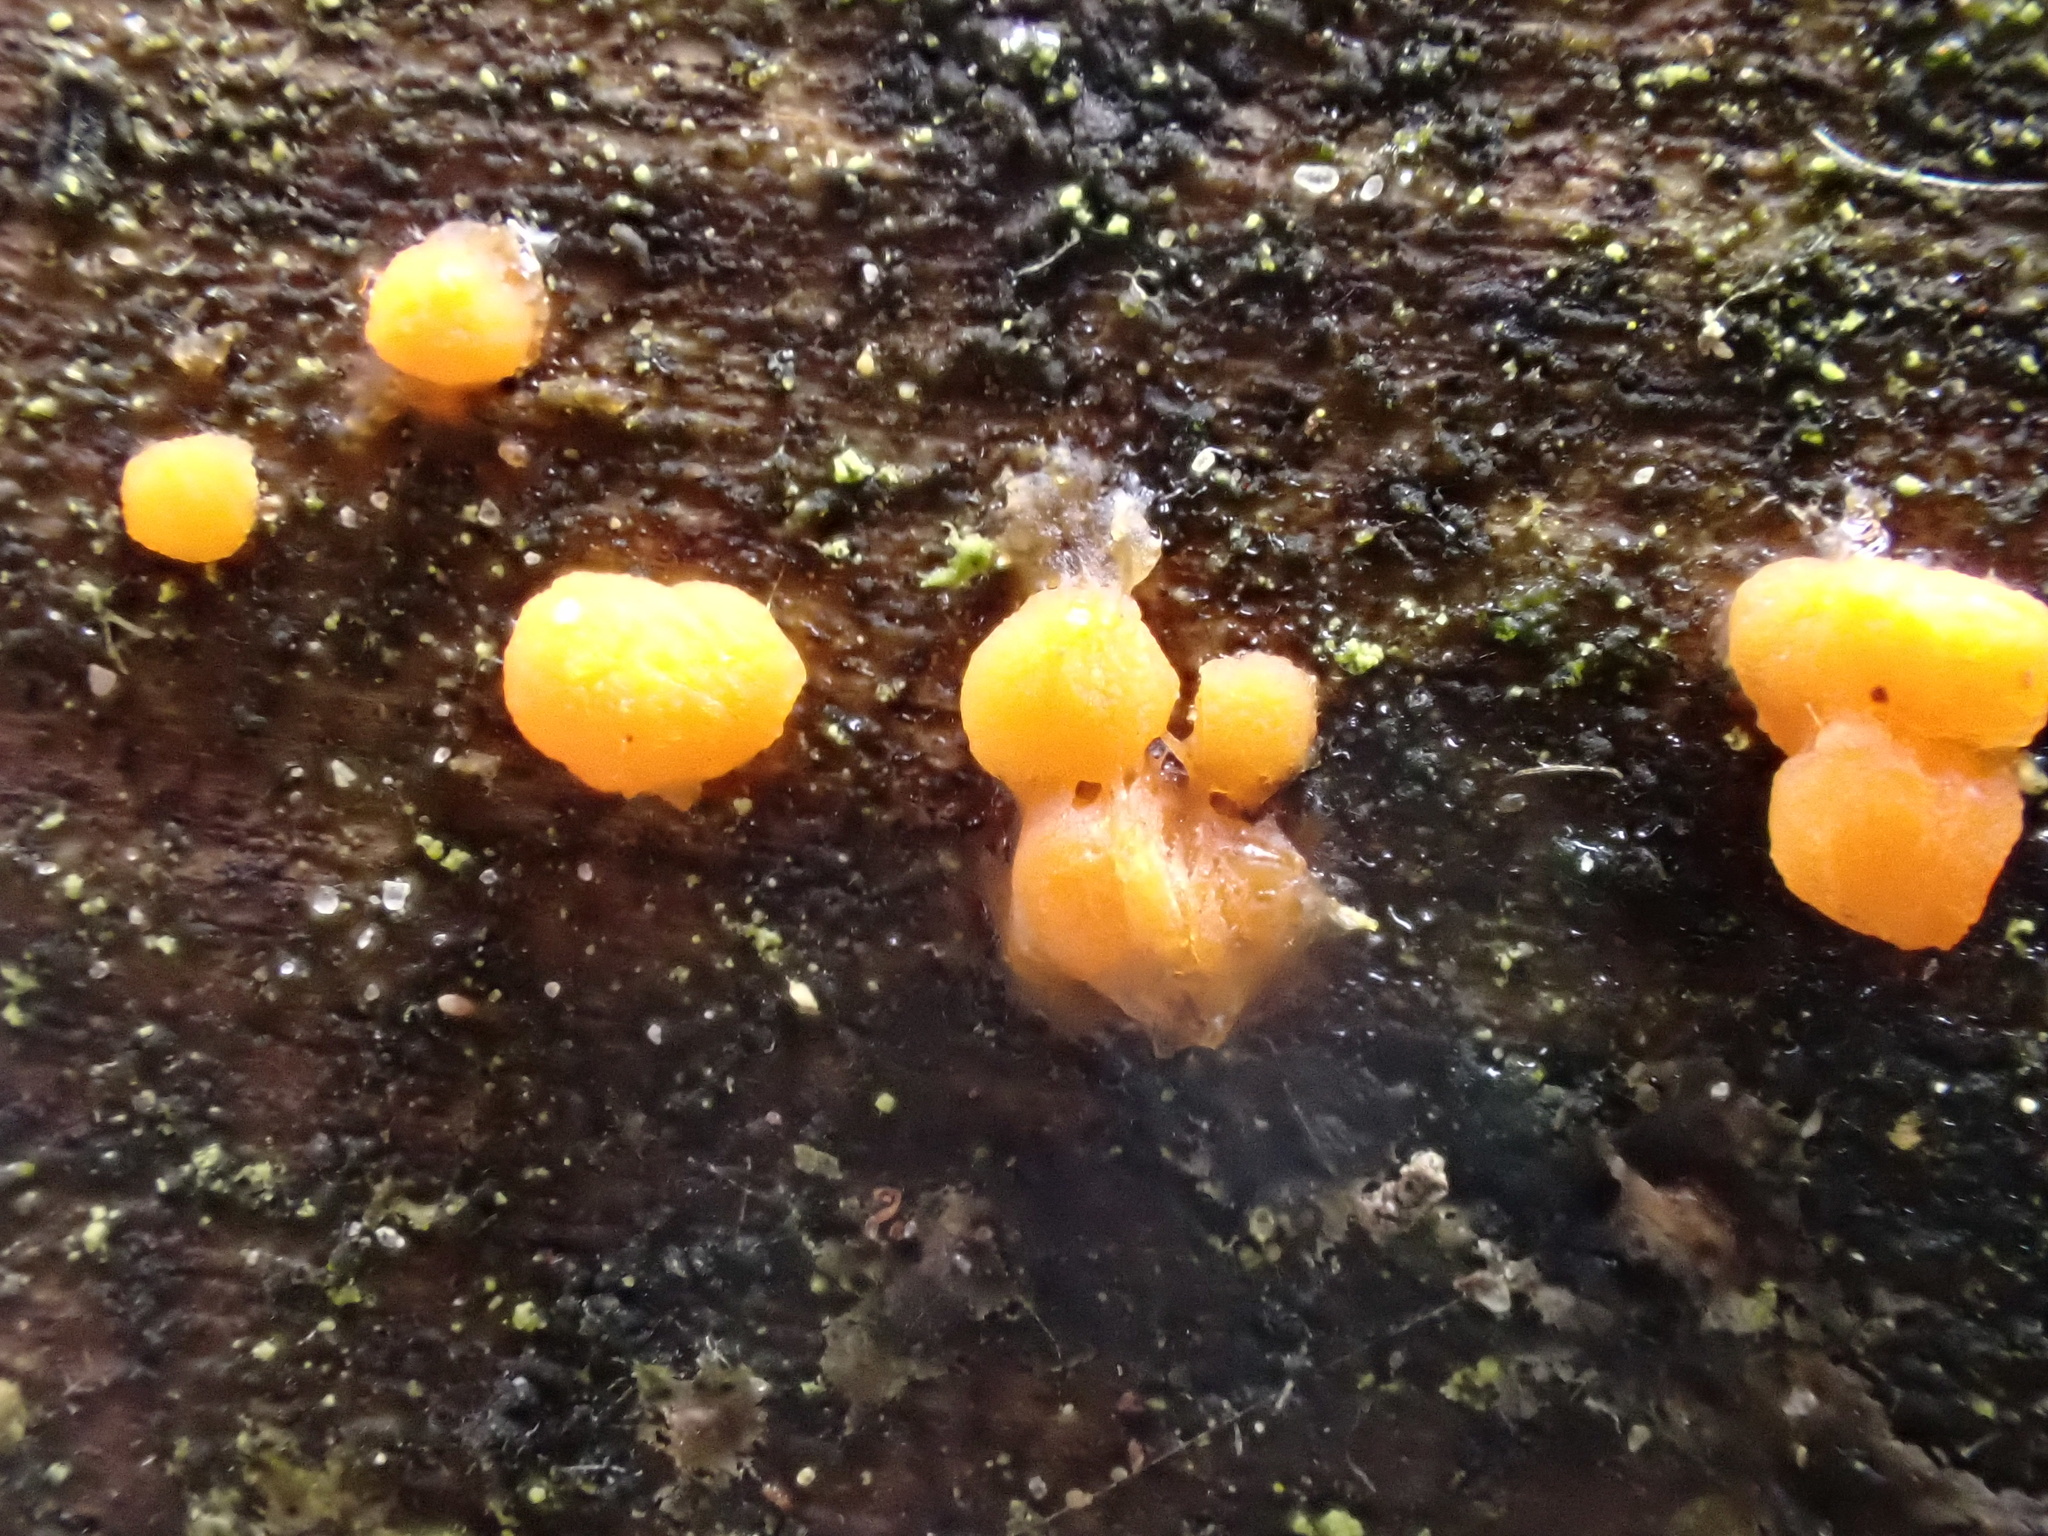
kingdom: Fungi
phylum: Basidiomycota
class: Dacrymycetes
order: Dacrymycetales
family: Dacrymycetaceae
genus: Dacrymyces
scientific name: Dacrymyces stillatus
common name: Common jelly spot
